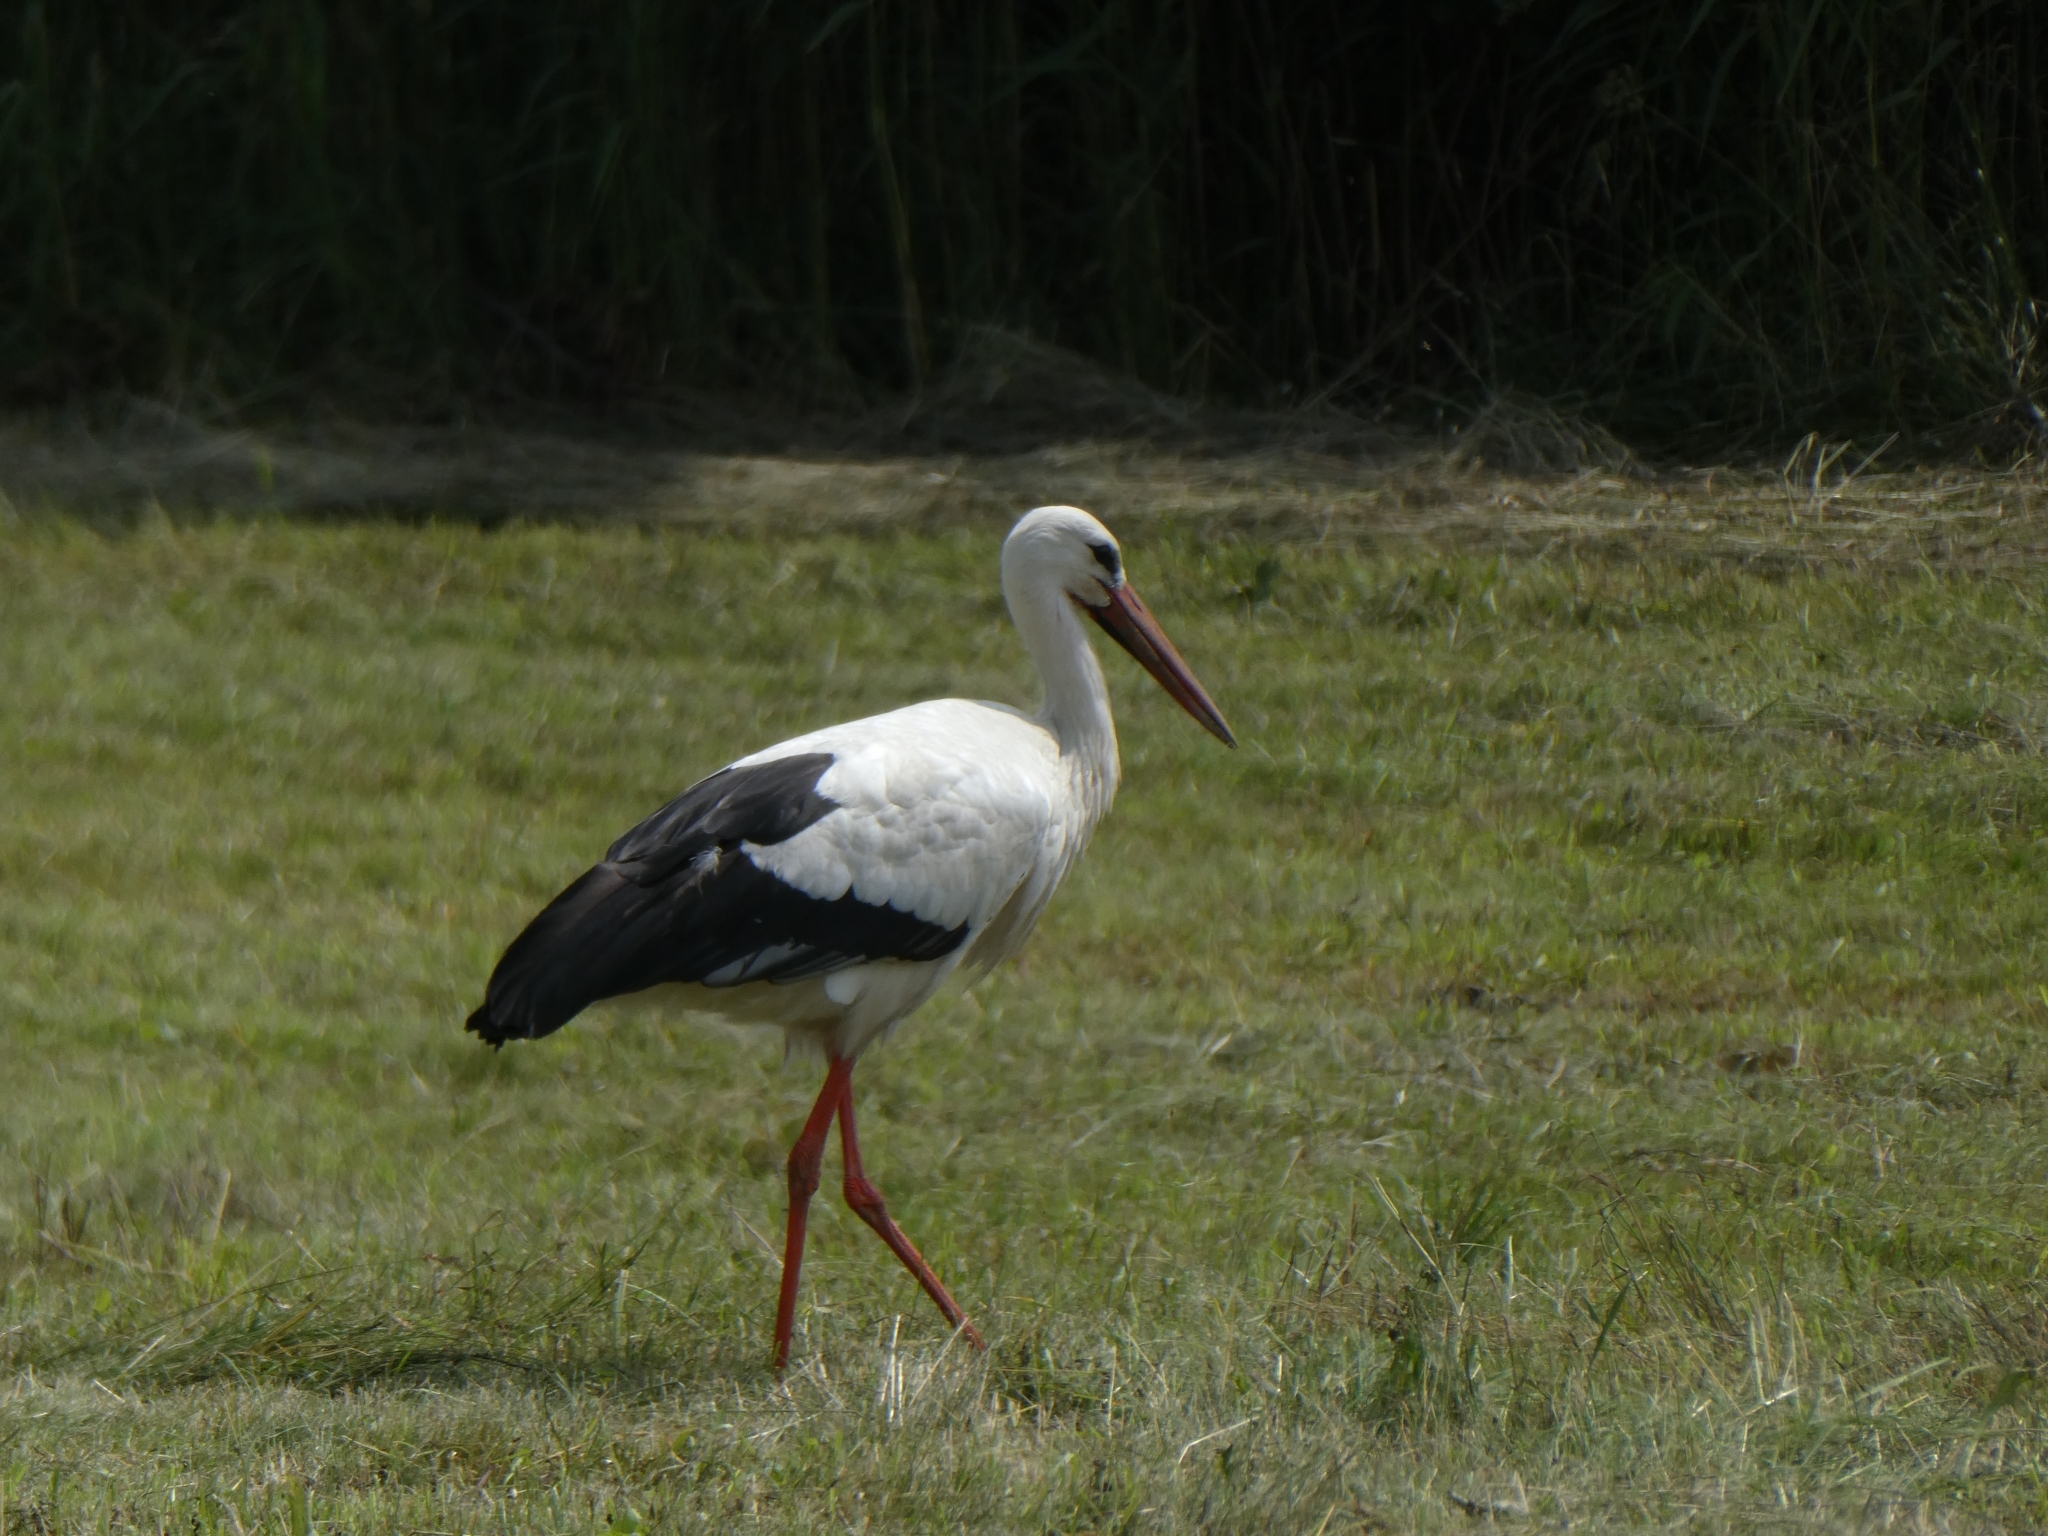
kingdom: Animalia
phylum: Chordata
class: Aves
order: Ciconiiformes
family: Ciconiidae
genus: Ciconia
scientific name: Ciconia ciconia
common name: White stork
